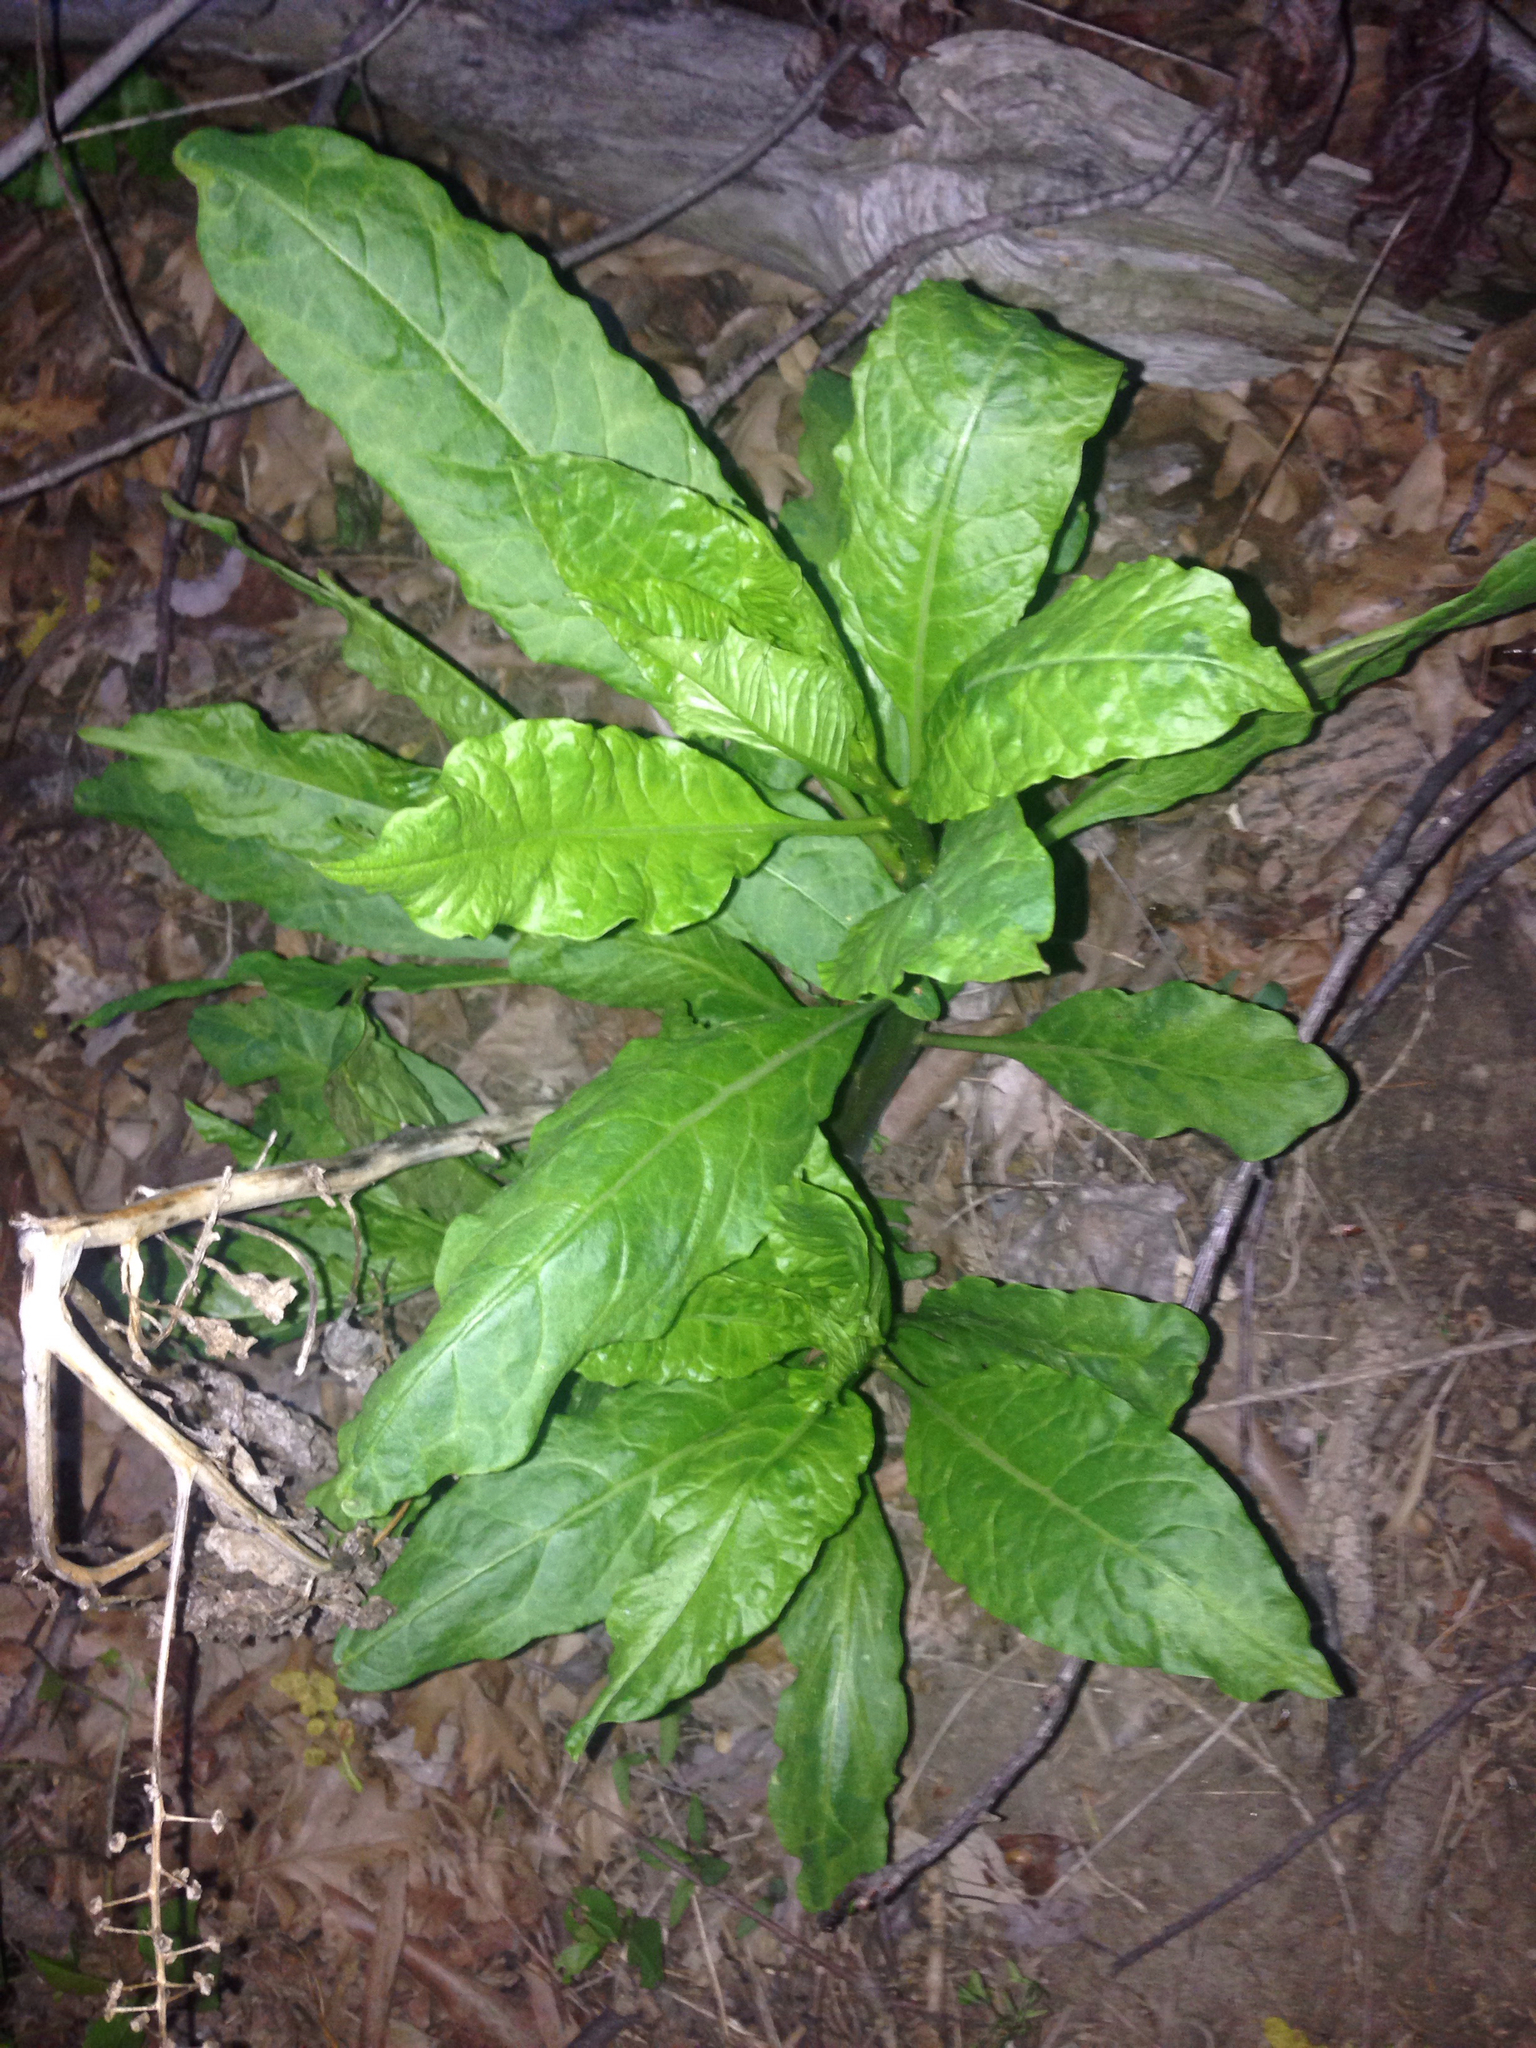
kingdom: Plantae
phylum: Tracheophyta
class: Magnoliopsida
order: Caryophyllales
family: Phytolaccaceae
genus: Phytolacca
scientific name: Phytolacca americana
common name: American pokeweed
